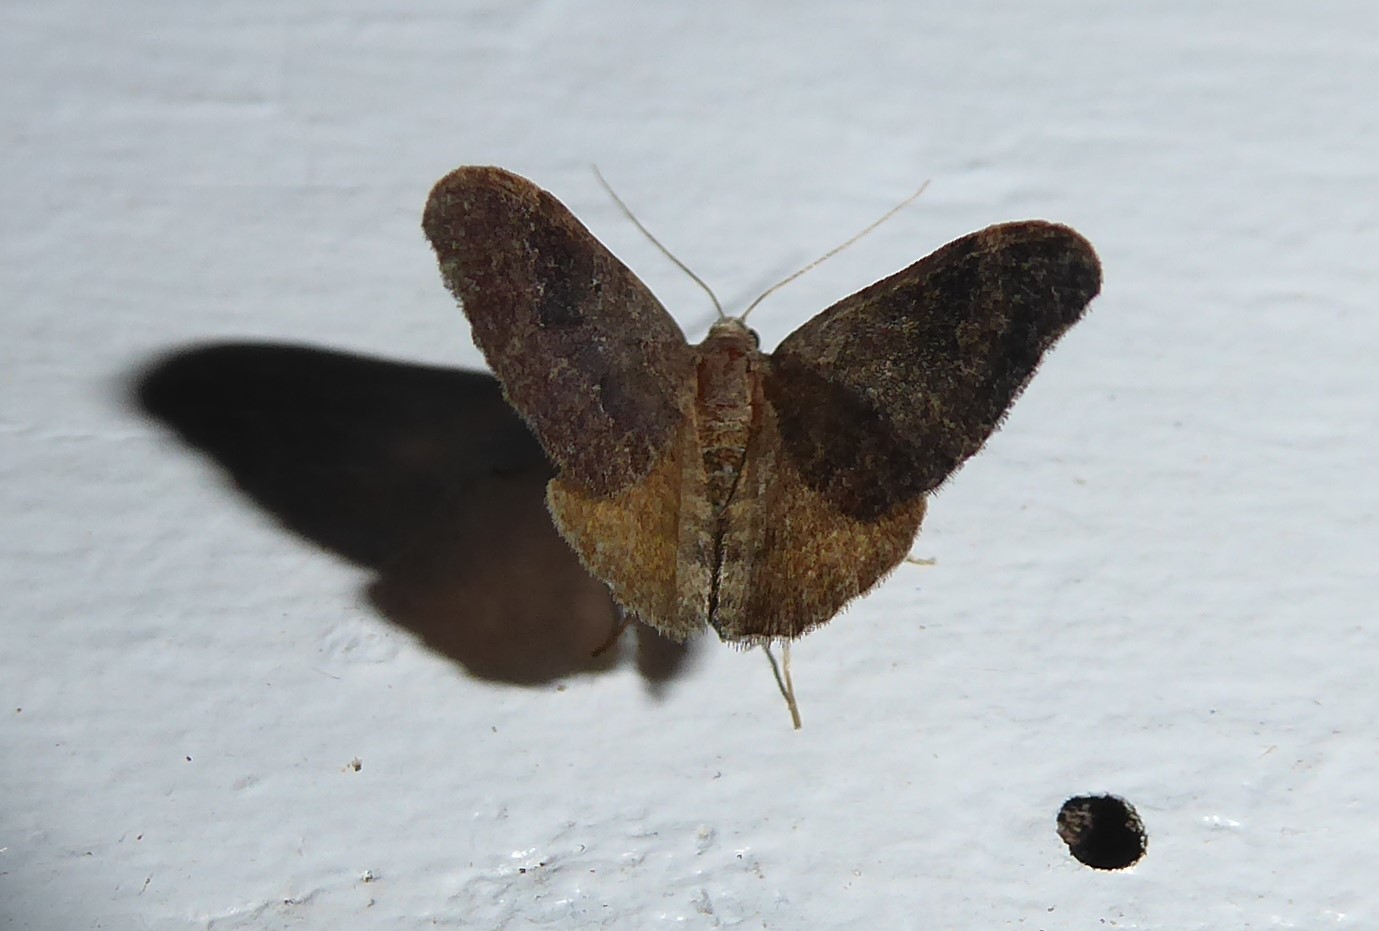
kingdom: Animalia
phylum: Arthropoda
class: Insecta
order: Lepidoptera
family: Geometridae
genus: Homodotis
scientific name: Homodotis megaspilata
